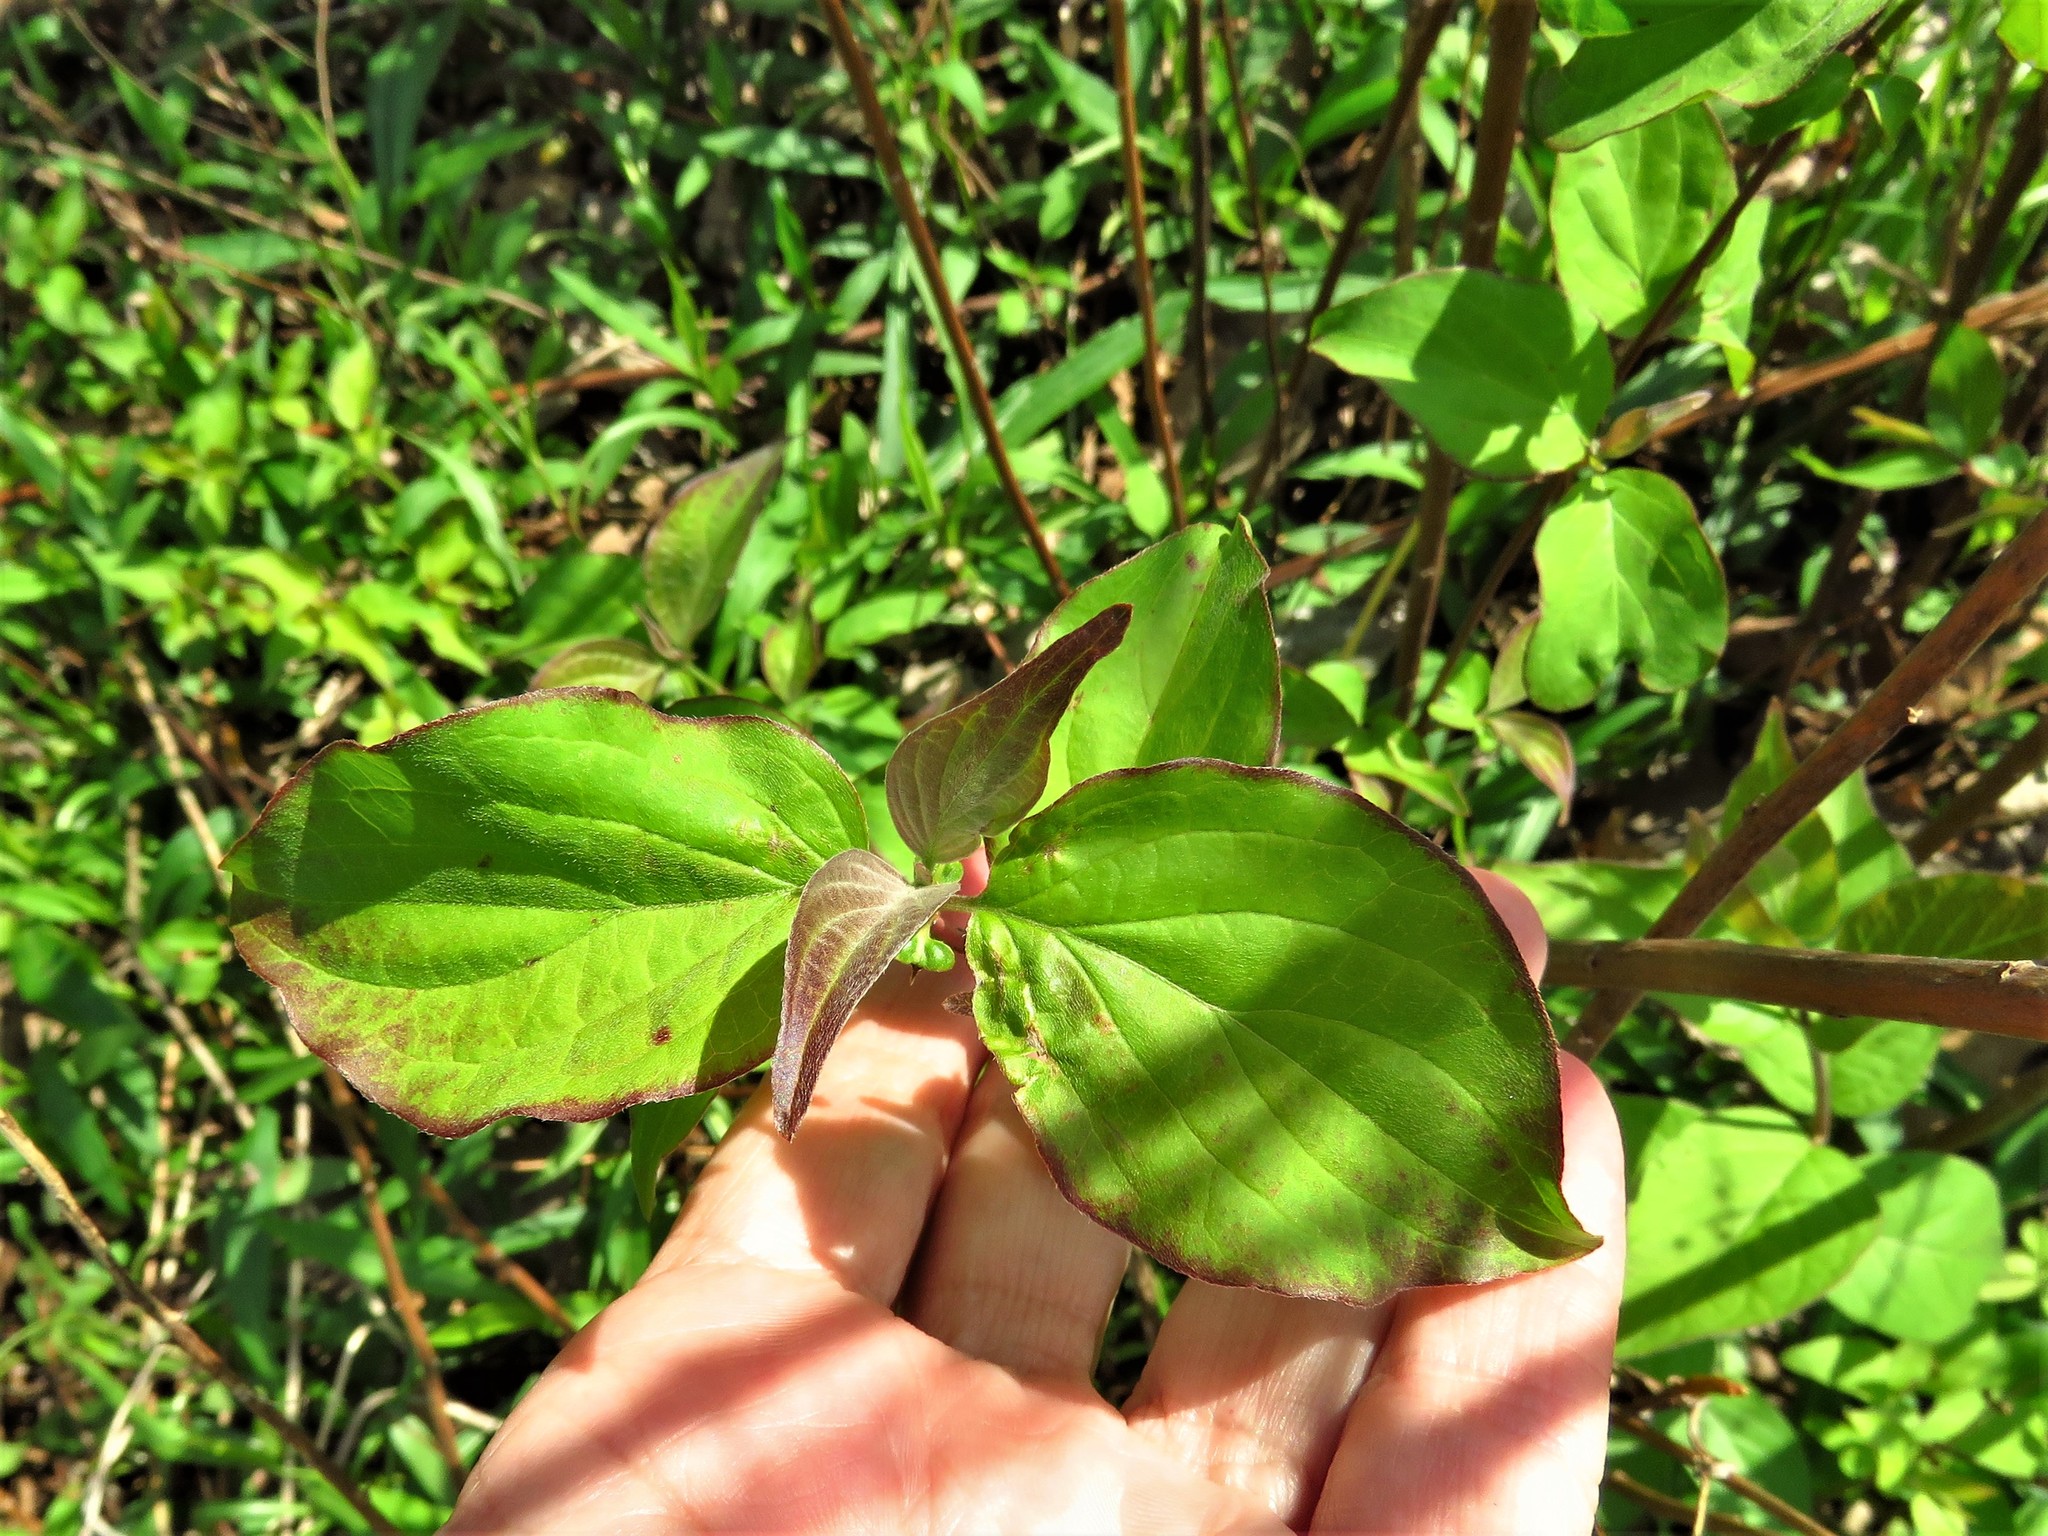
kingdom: Plantae
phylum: Tracheophyta
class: Magnoliopsida
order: Cornales
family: Cornaceae
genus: Cornus
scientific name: Cornus drummondii
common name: Rough-leaf dogwood
